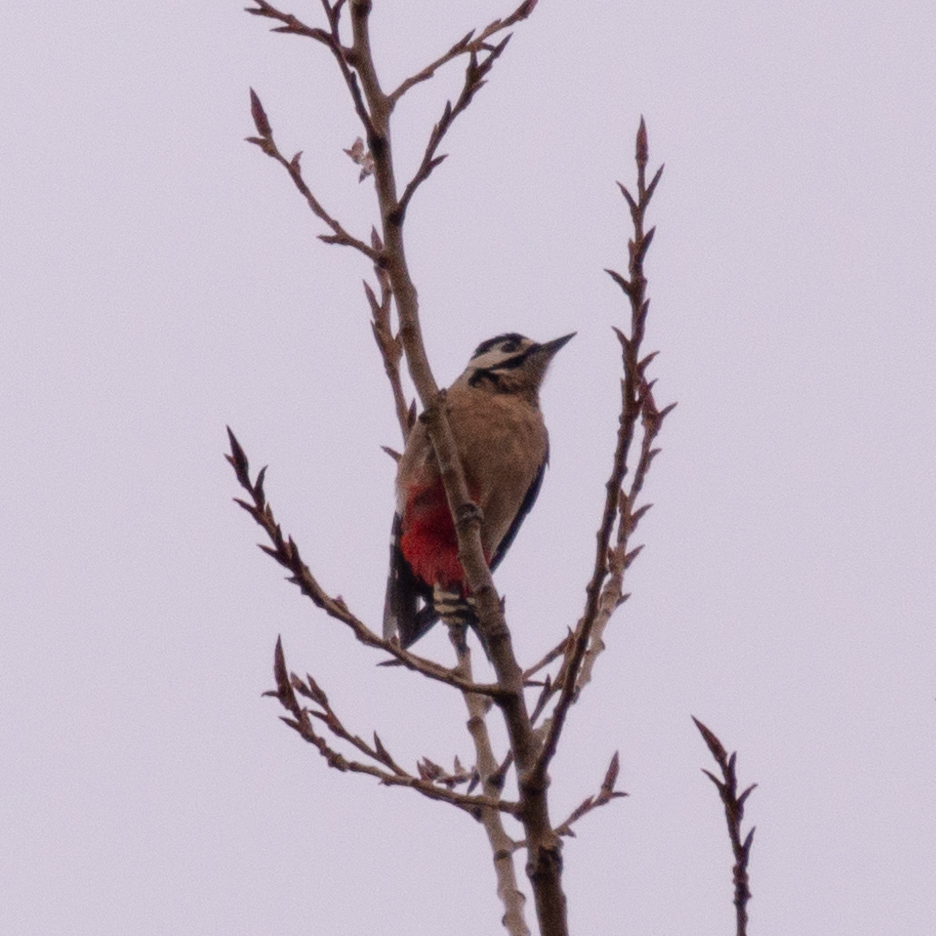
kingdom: Animalia
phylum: Chordata
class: Aves
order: Piciformes
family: Picidae
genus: Dendrocopos
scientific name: Dendrocopos major
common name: Great spotted woodpecker
